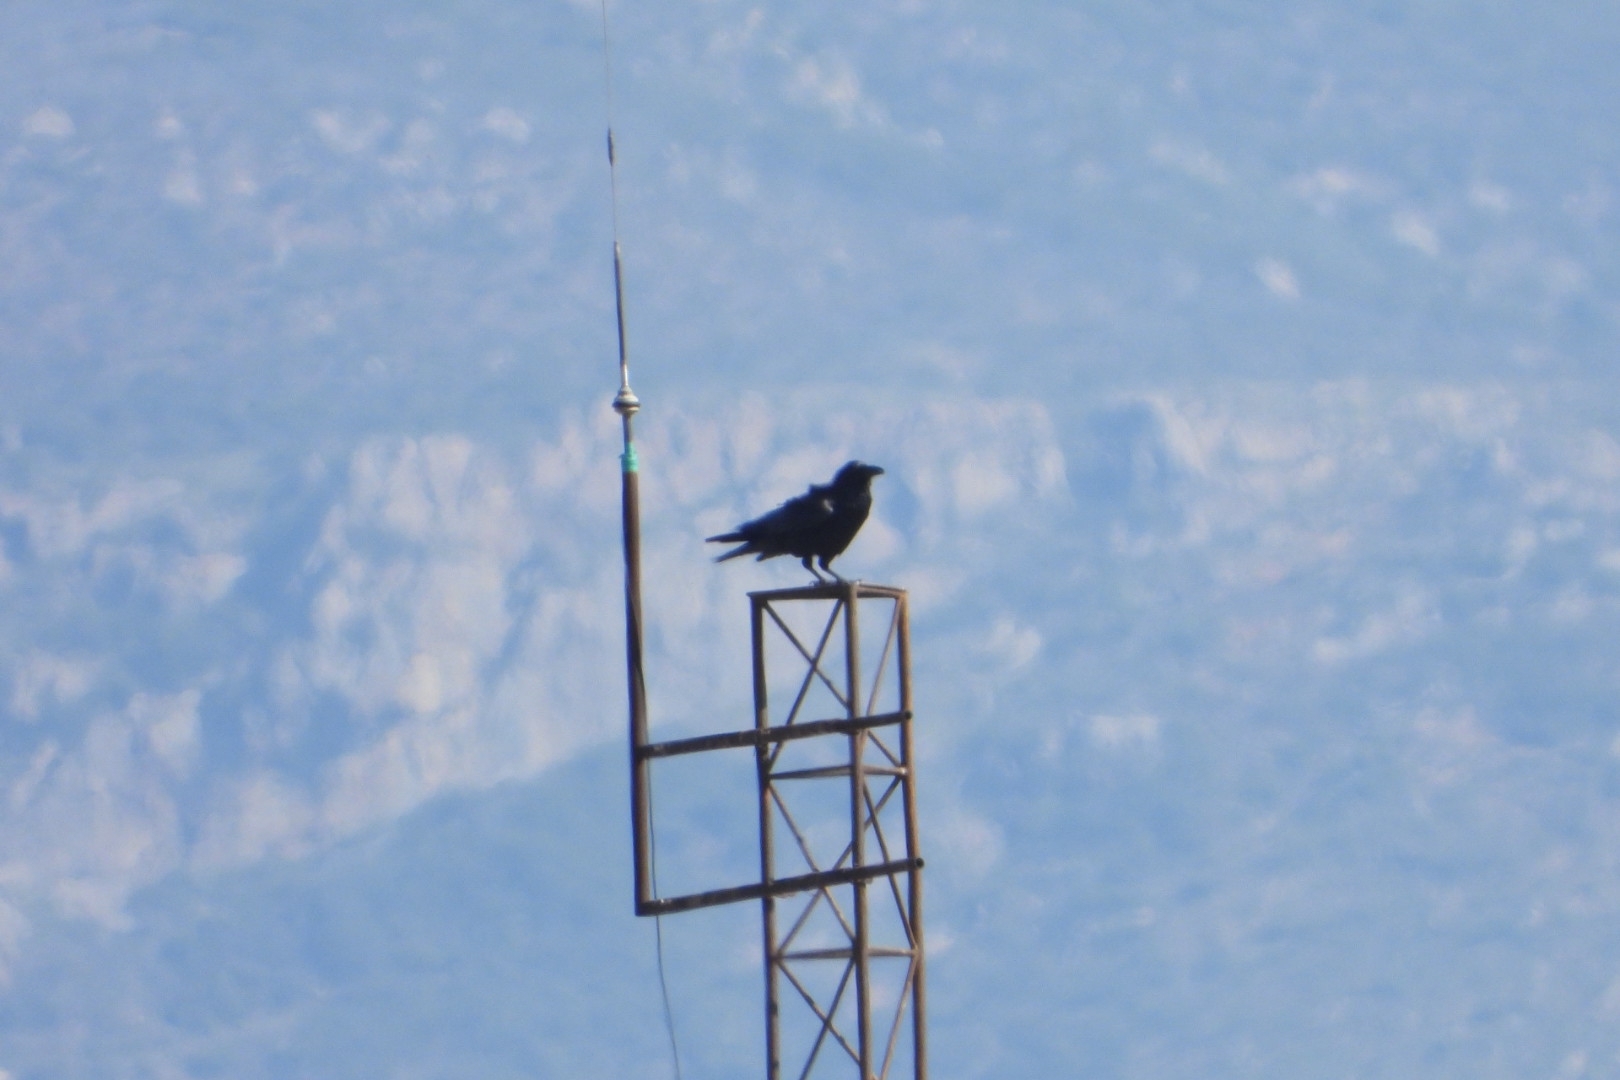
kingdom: Animalia
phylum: Chordata
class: Aves
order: Passeriformes
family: Corvidae
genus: Corvus
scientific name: Corvus corax
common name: Common raven
